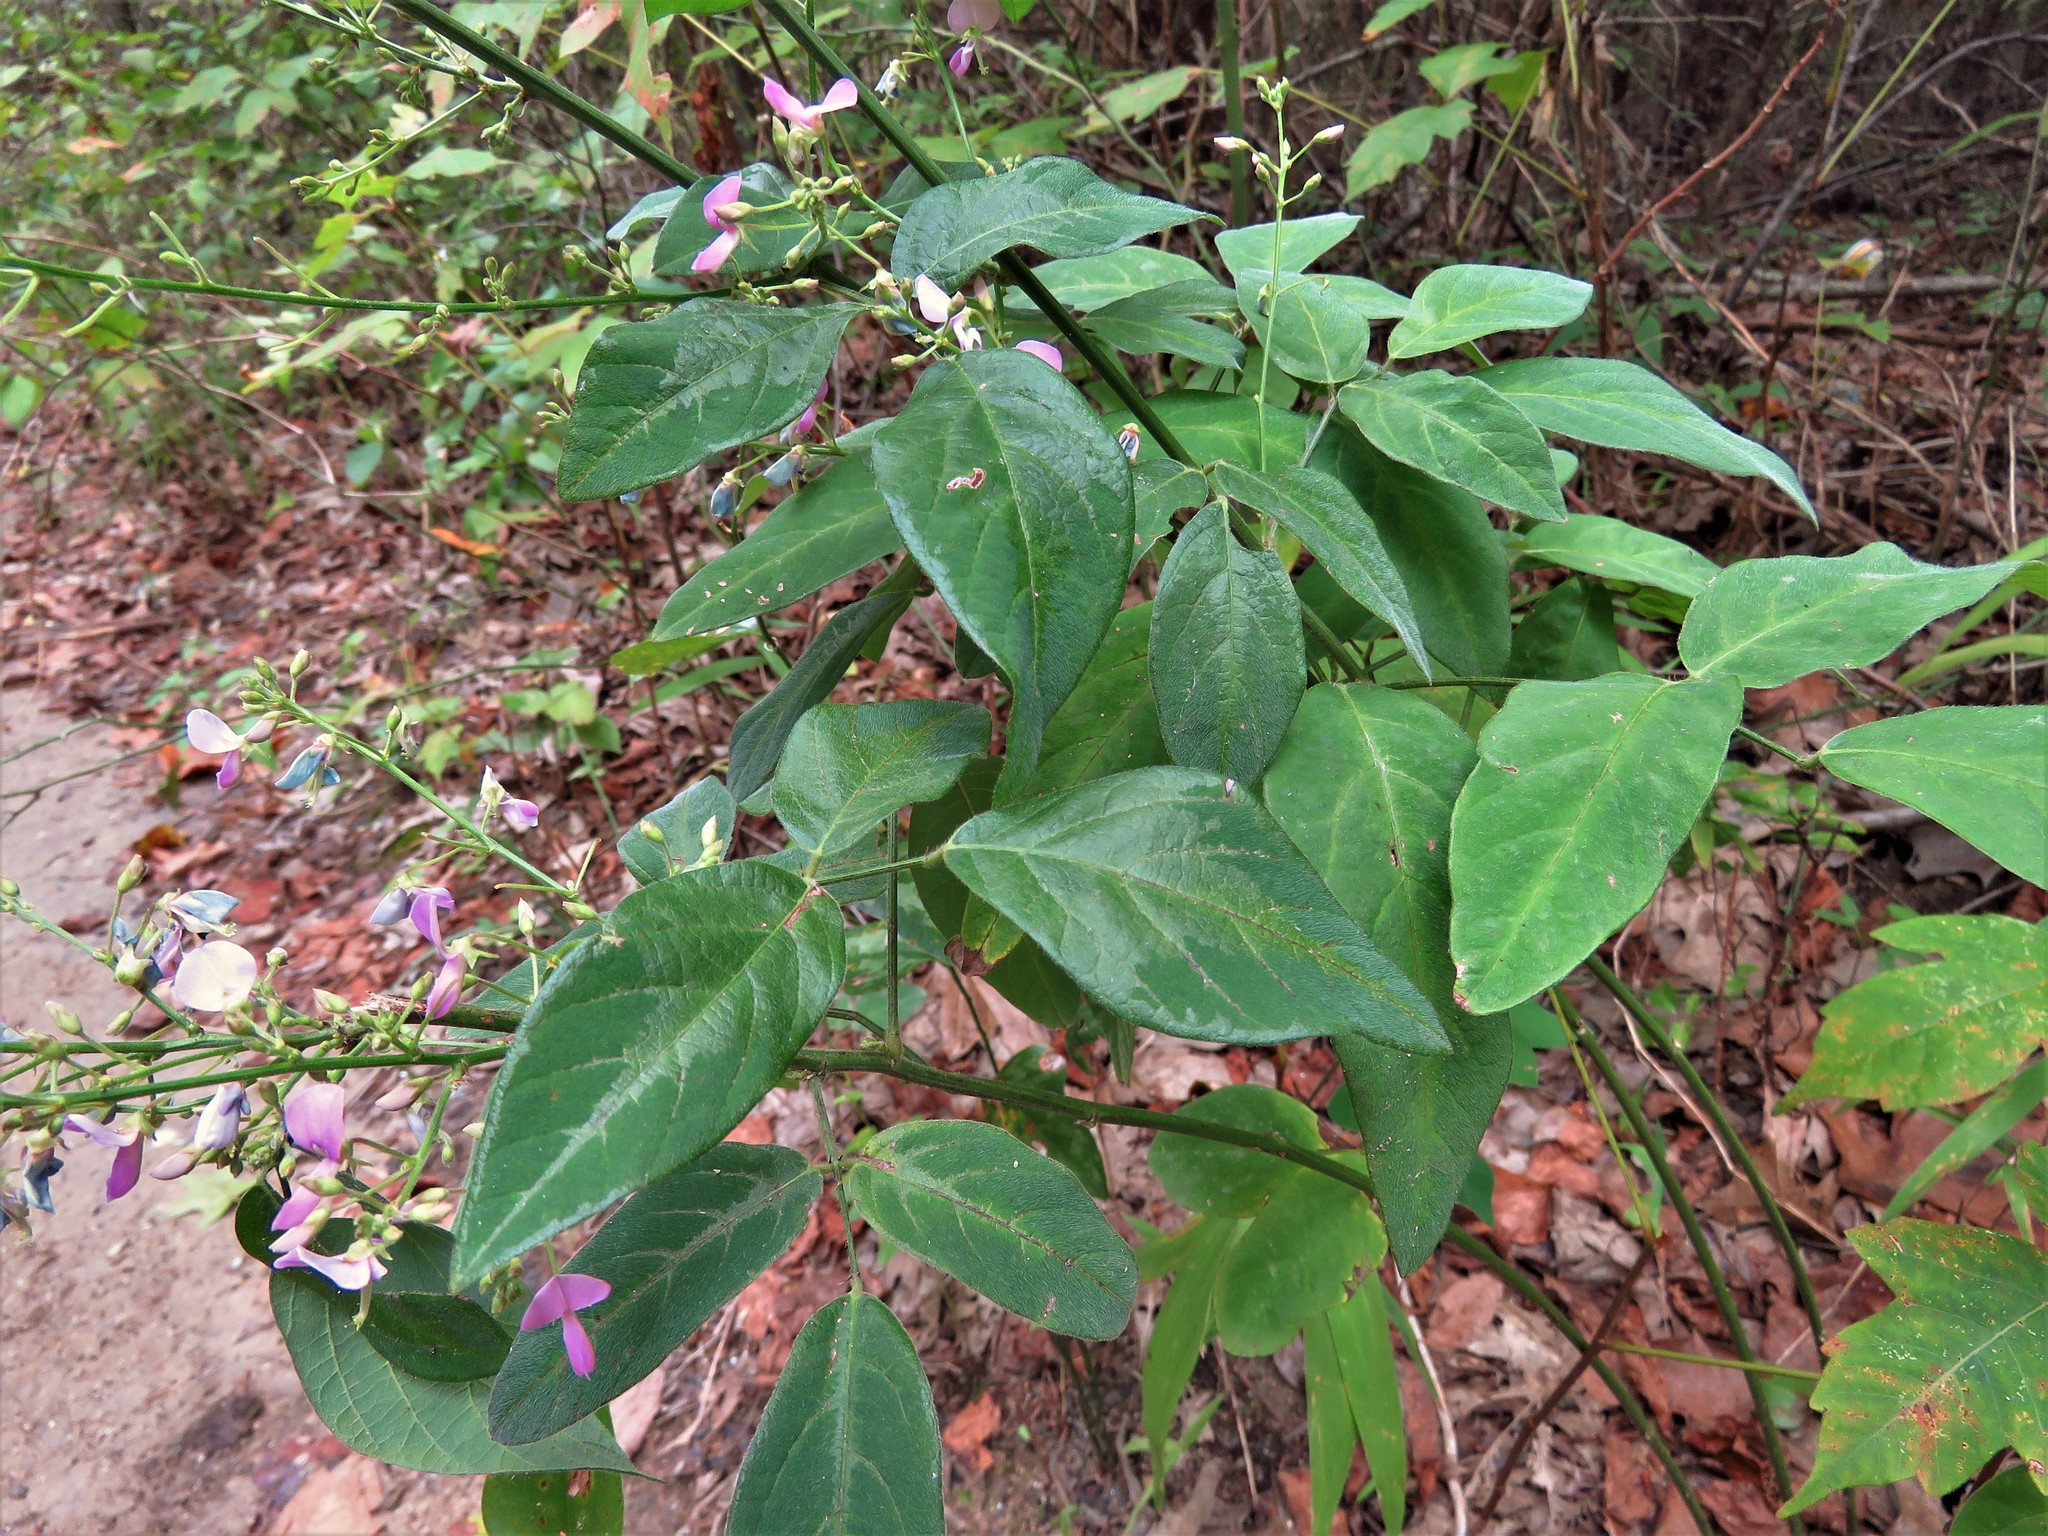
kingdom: Plantae
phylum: Tracheophyta
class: Magnoliopsida
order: Fabales
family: Fabaceae
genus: Desmodium
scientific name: Desmodium paniculatum
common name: Panicled tick-clover
